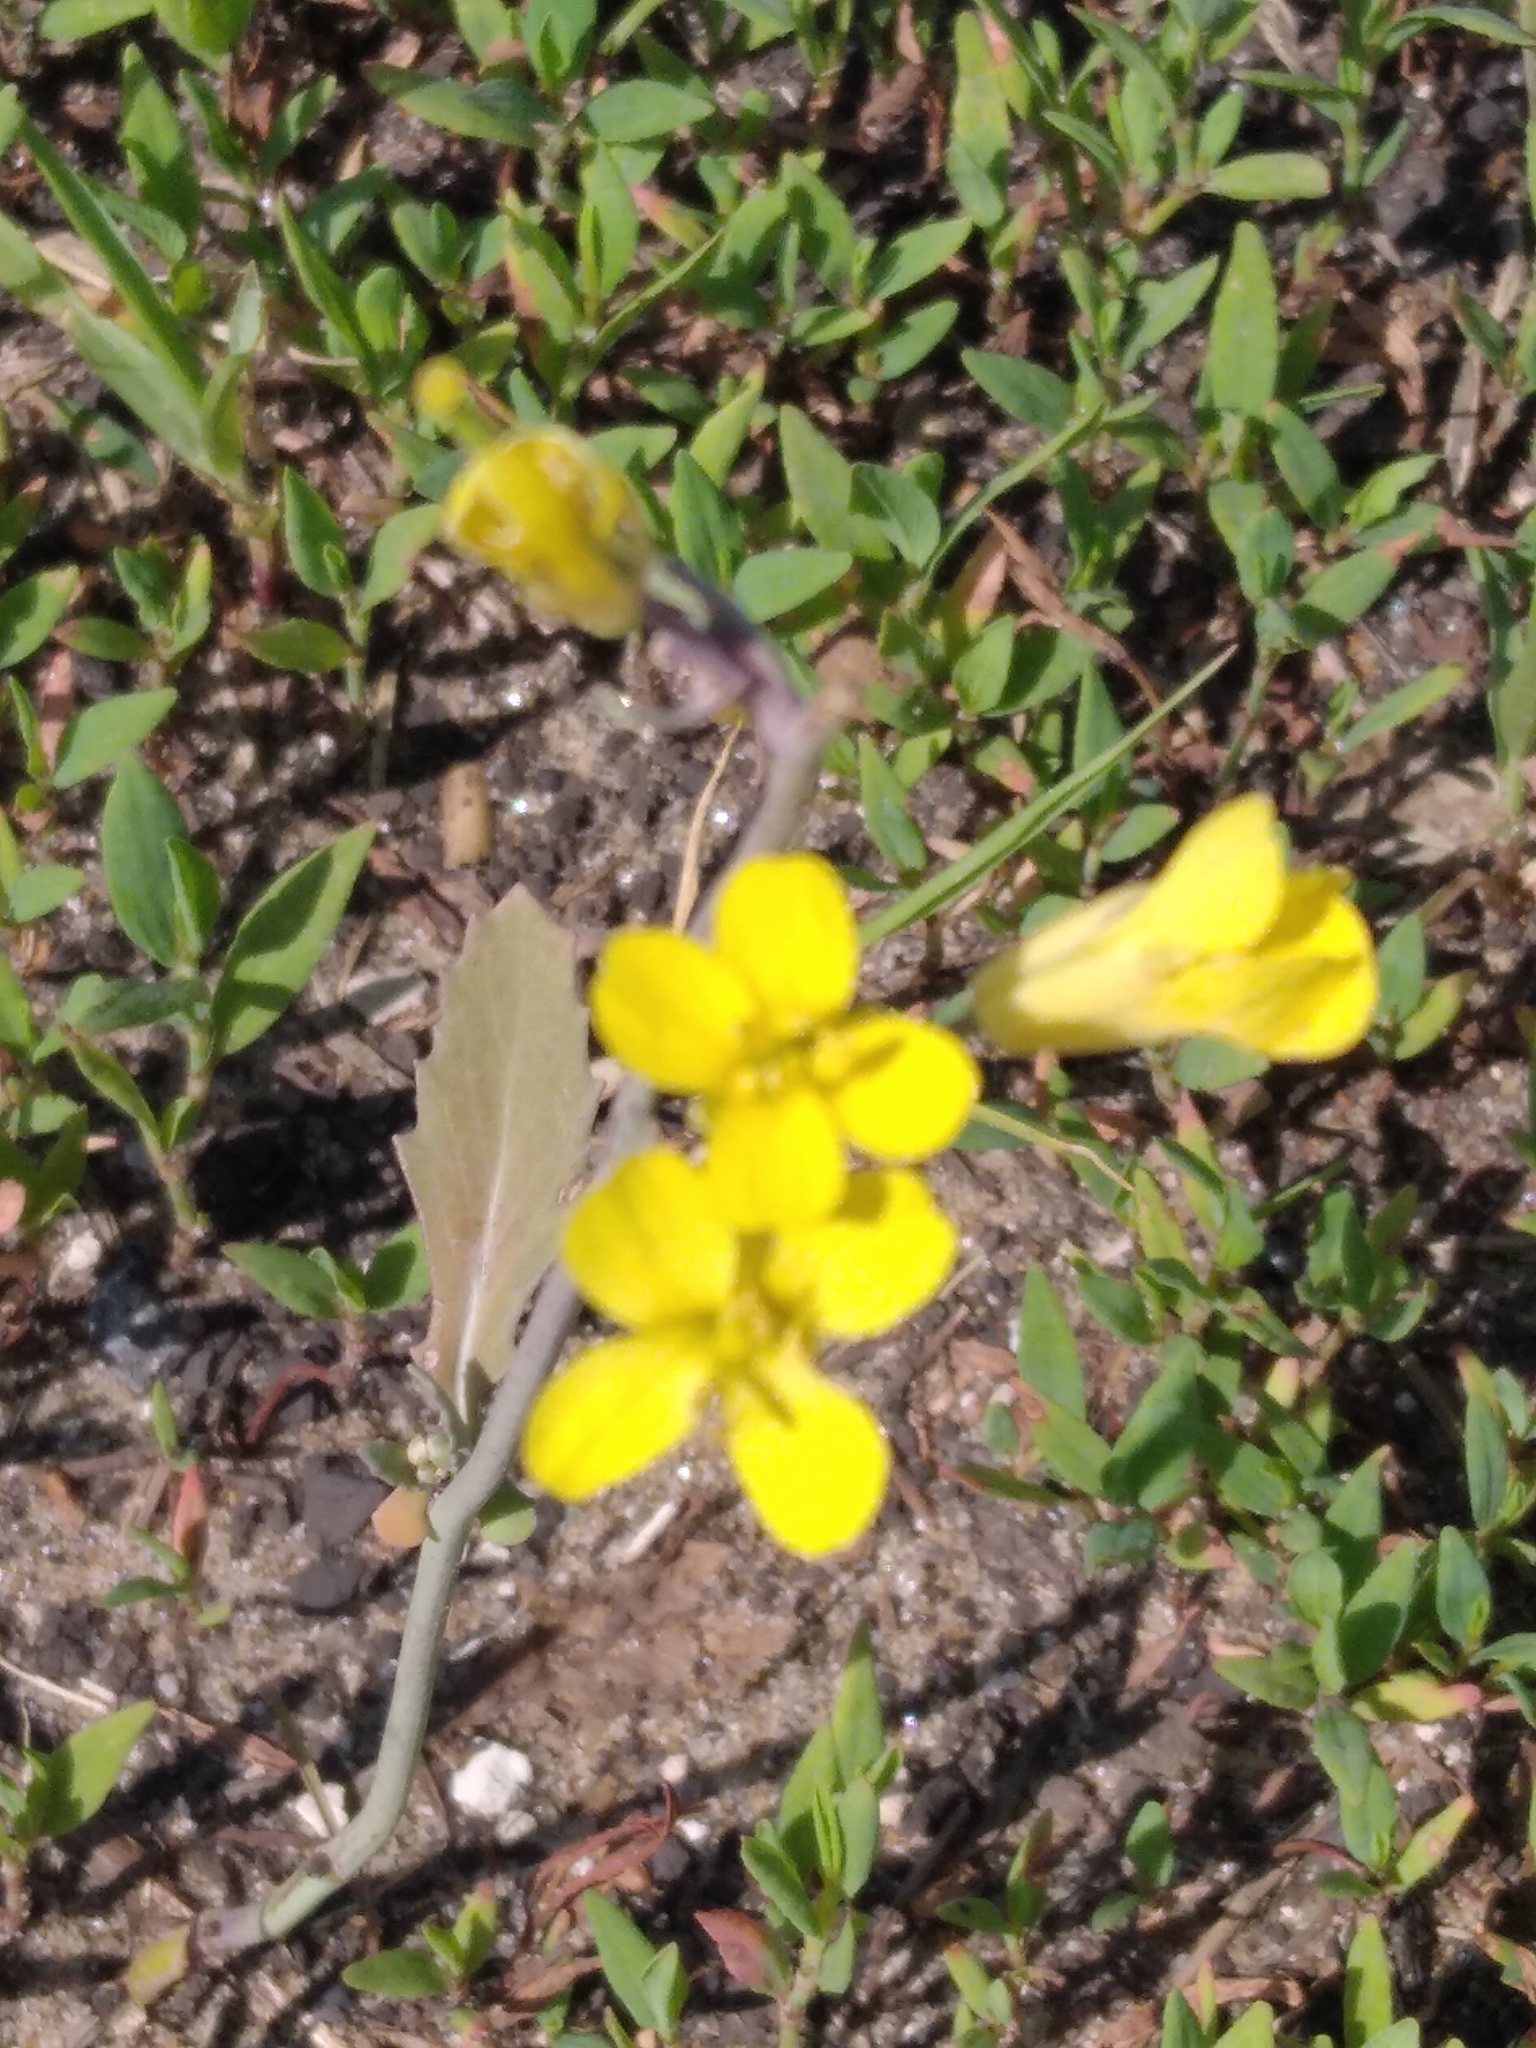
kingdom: Plantae
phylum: Tracheophyta
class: Magnoliopsida
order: Brassicales
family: Brassicaceae
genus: Brassica
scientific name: Brassica rapa
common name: Field mustard
